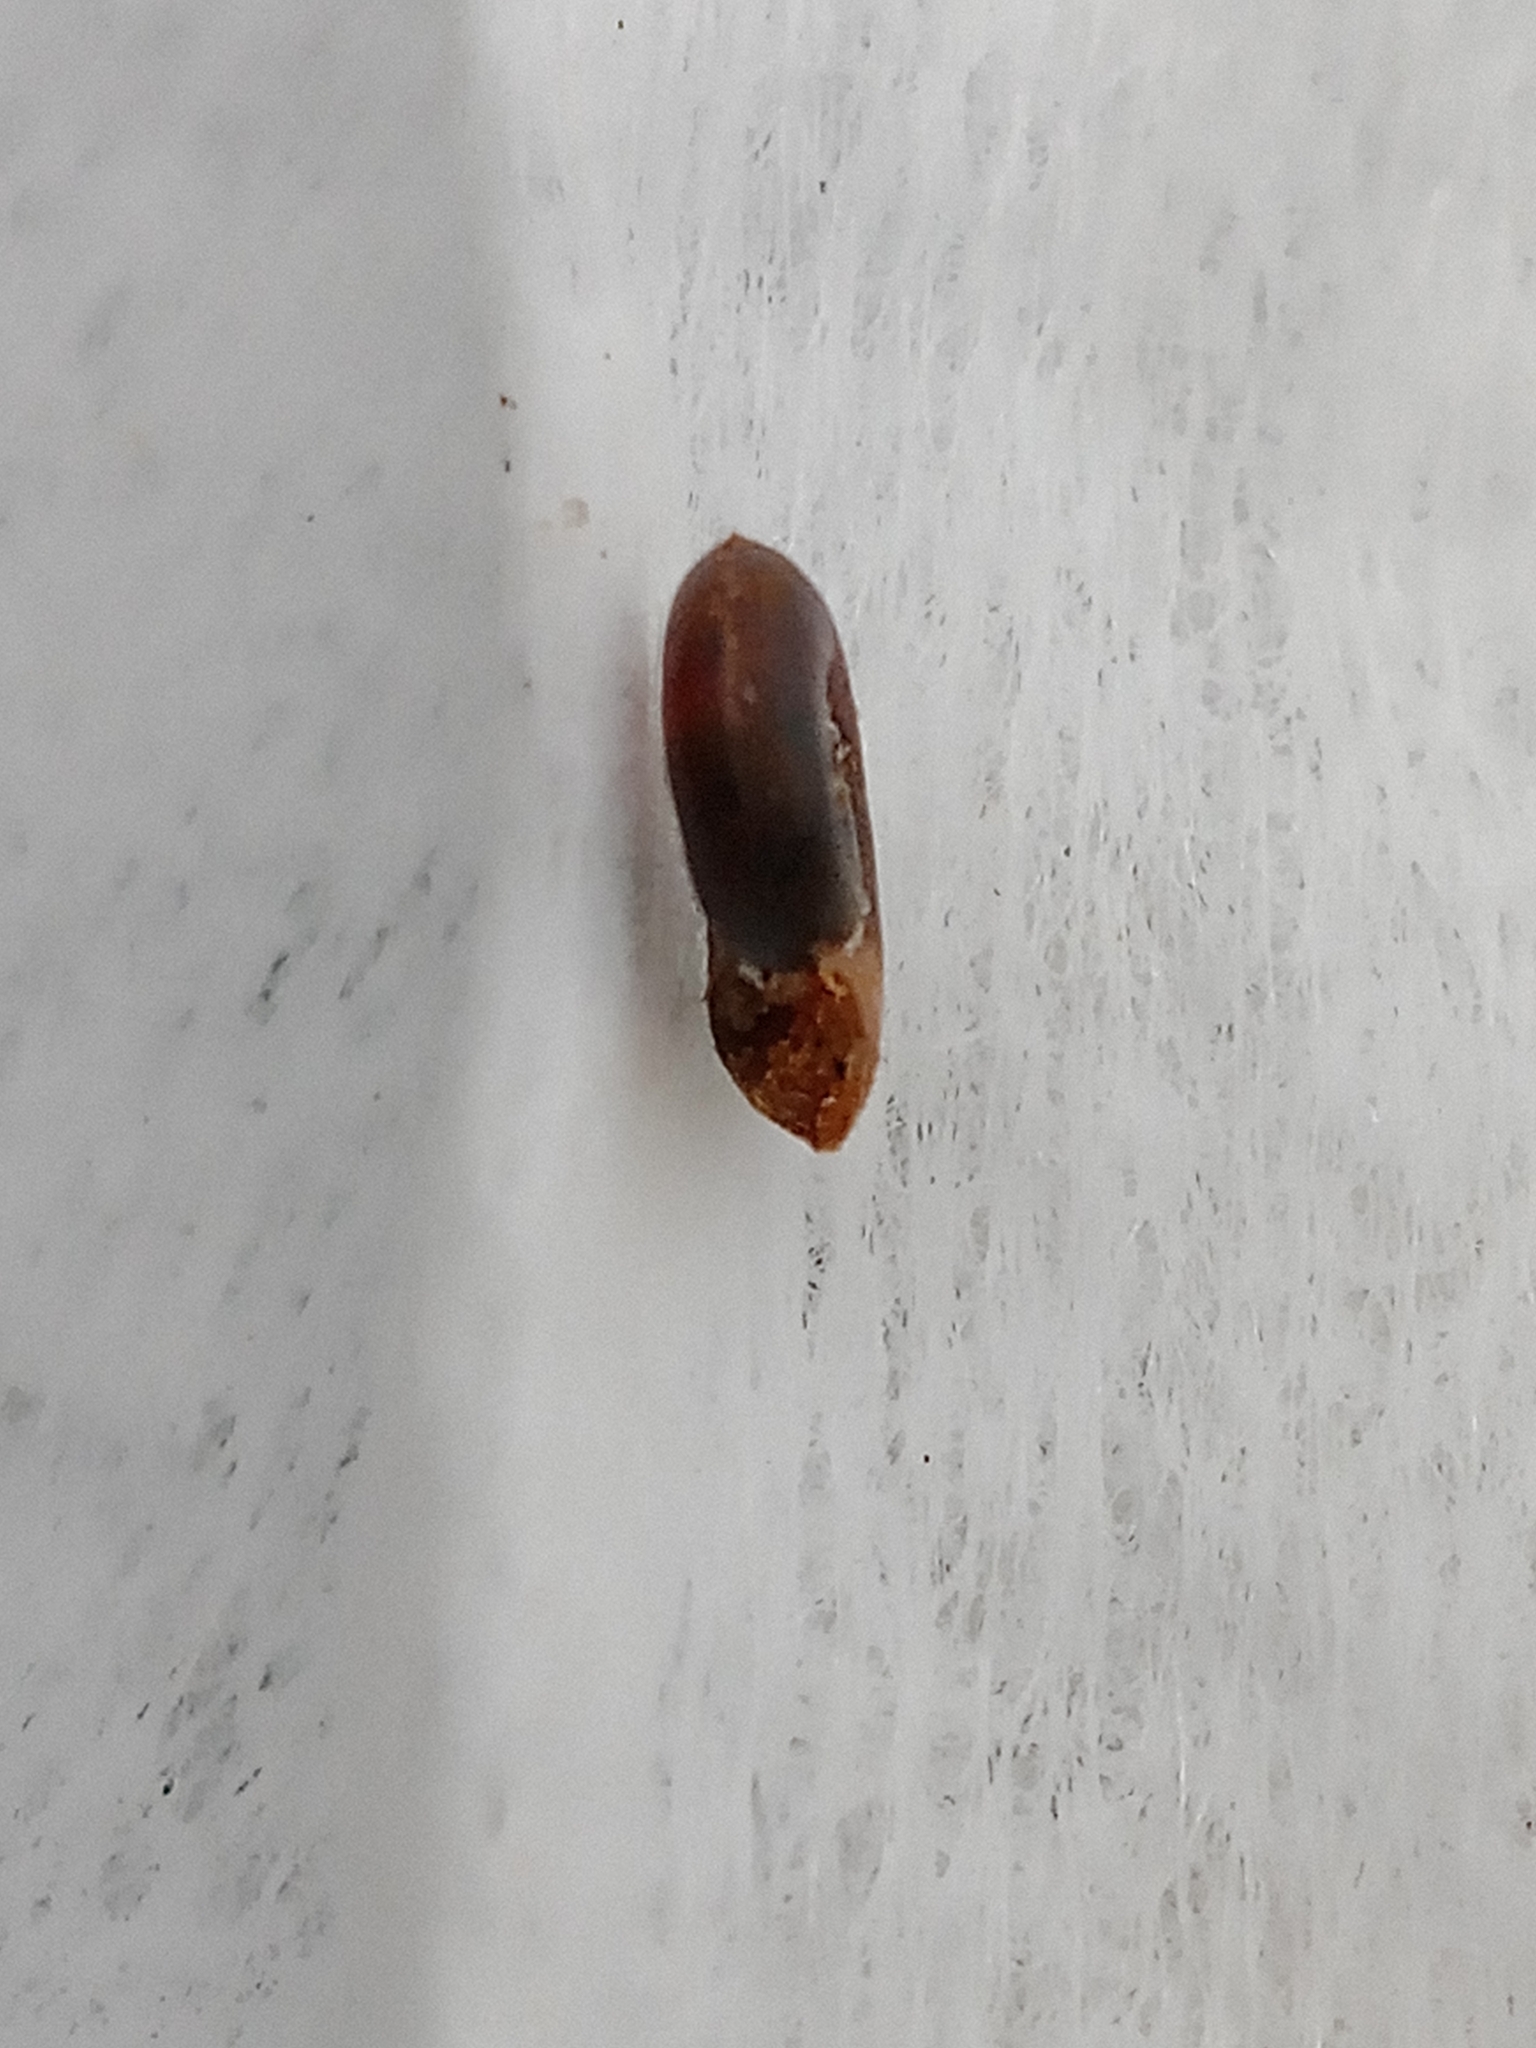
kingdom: Animalia
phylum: Mollusca
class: Gastropoda
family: Planorbidae
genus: Gyraulus
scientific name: Gyraulus acronicus
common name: Thames ram's-horn snail
